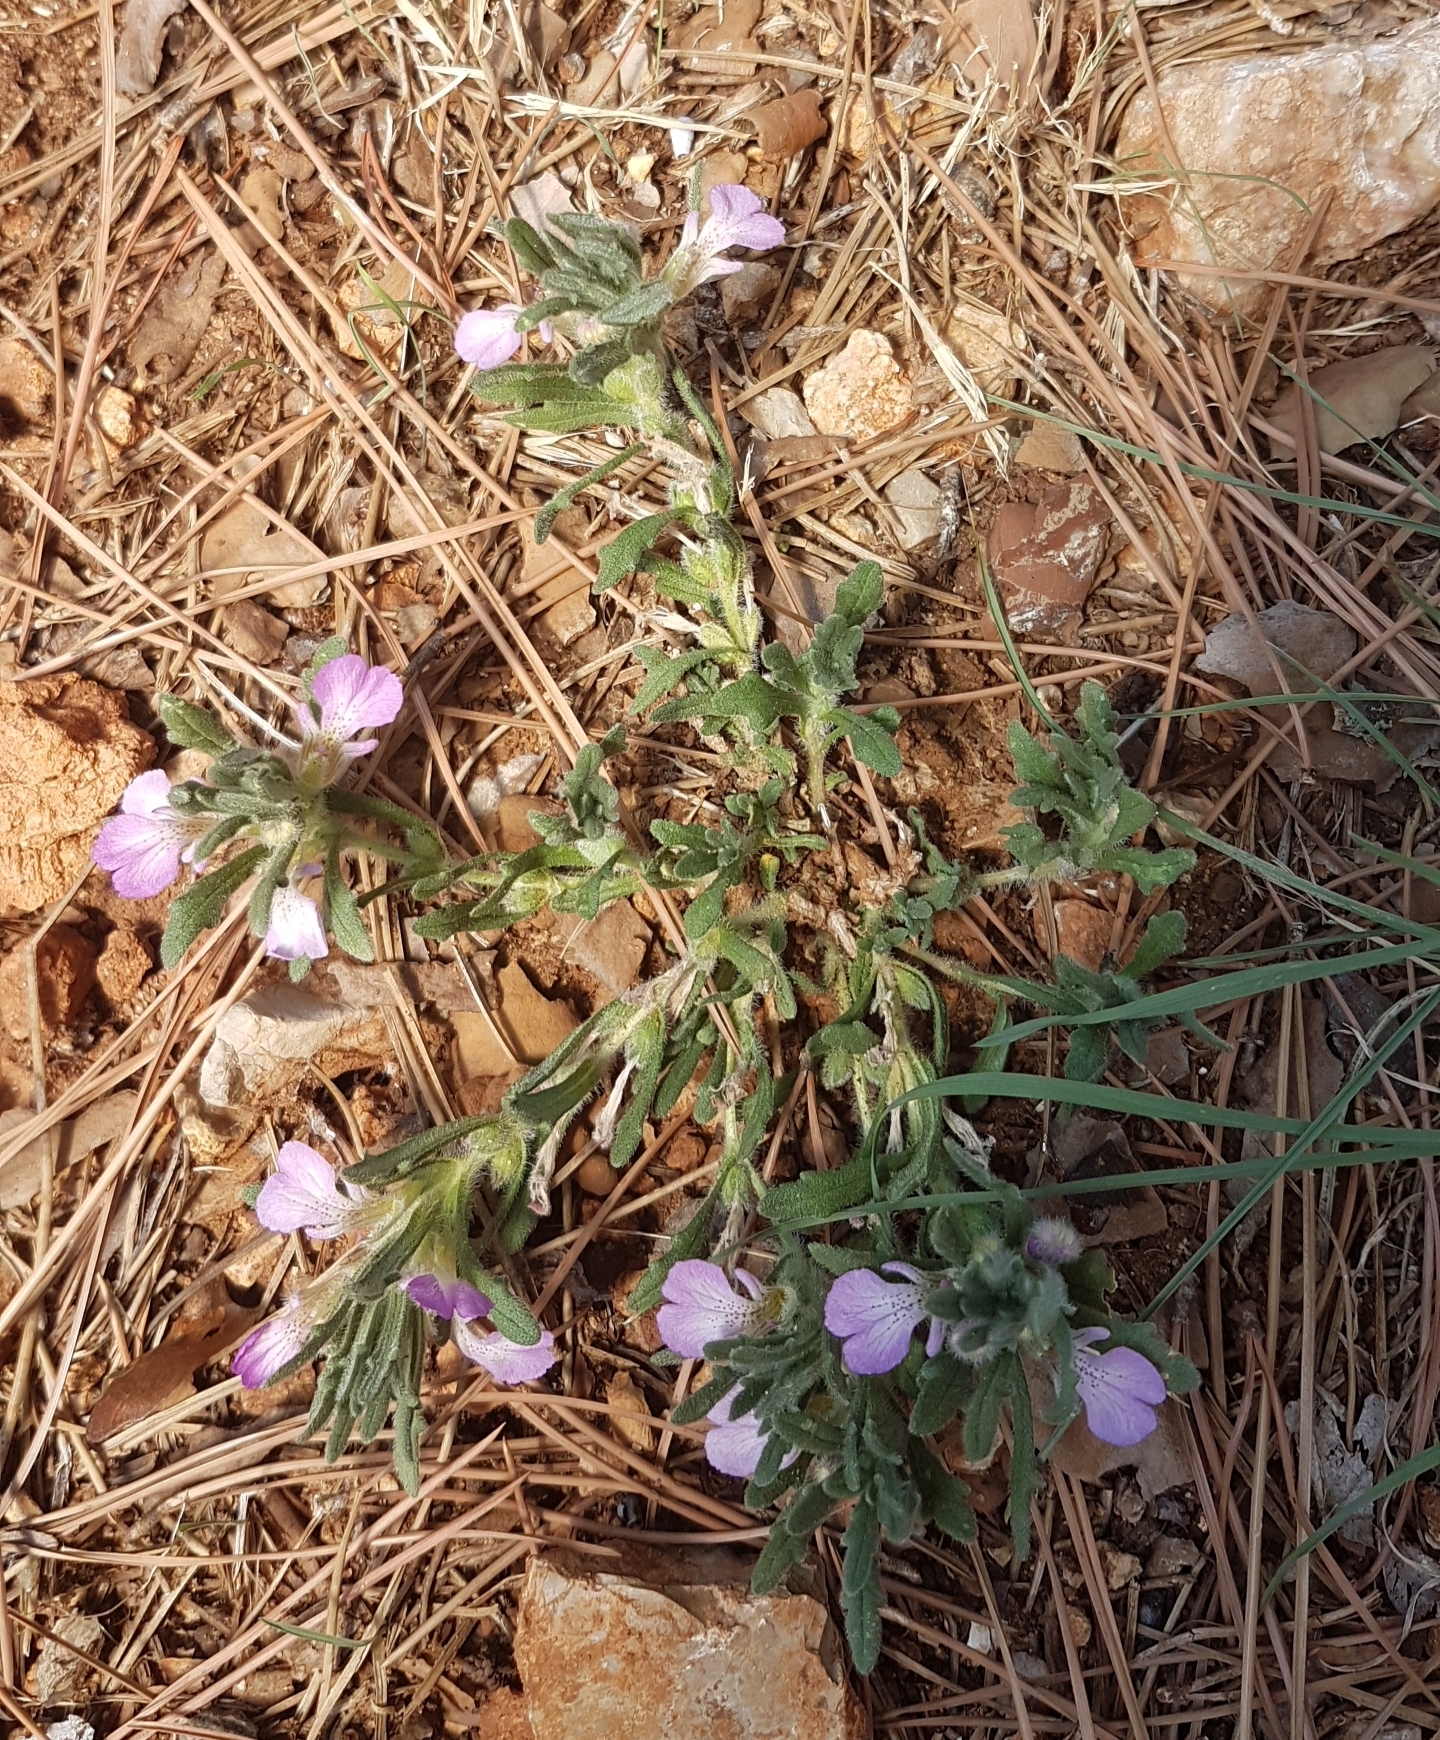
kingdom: Plantae
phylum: Tracheophyta
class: Magnoliopsida
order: Lamiales
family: Lamiaceae
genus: Ajuga
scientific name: Ajuga iva
